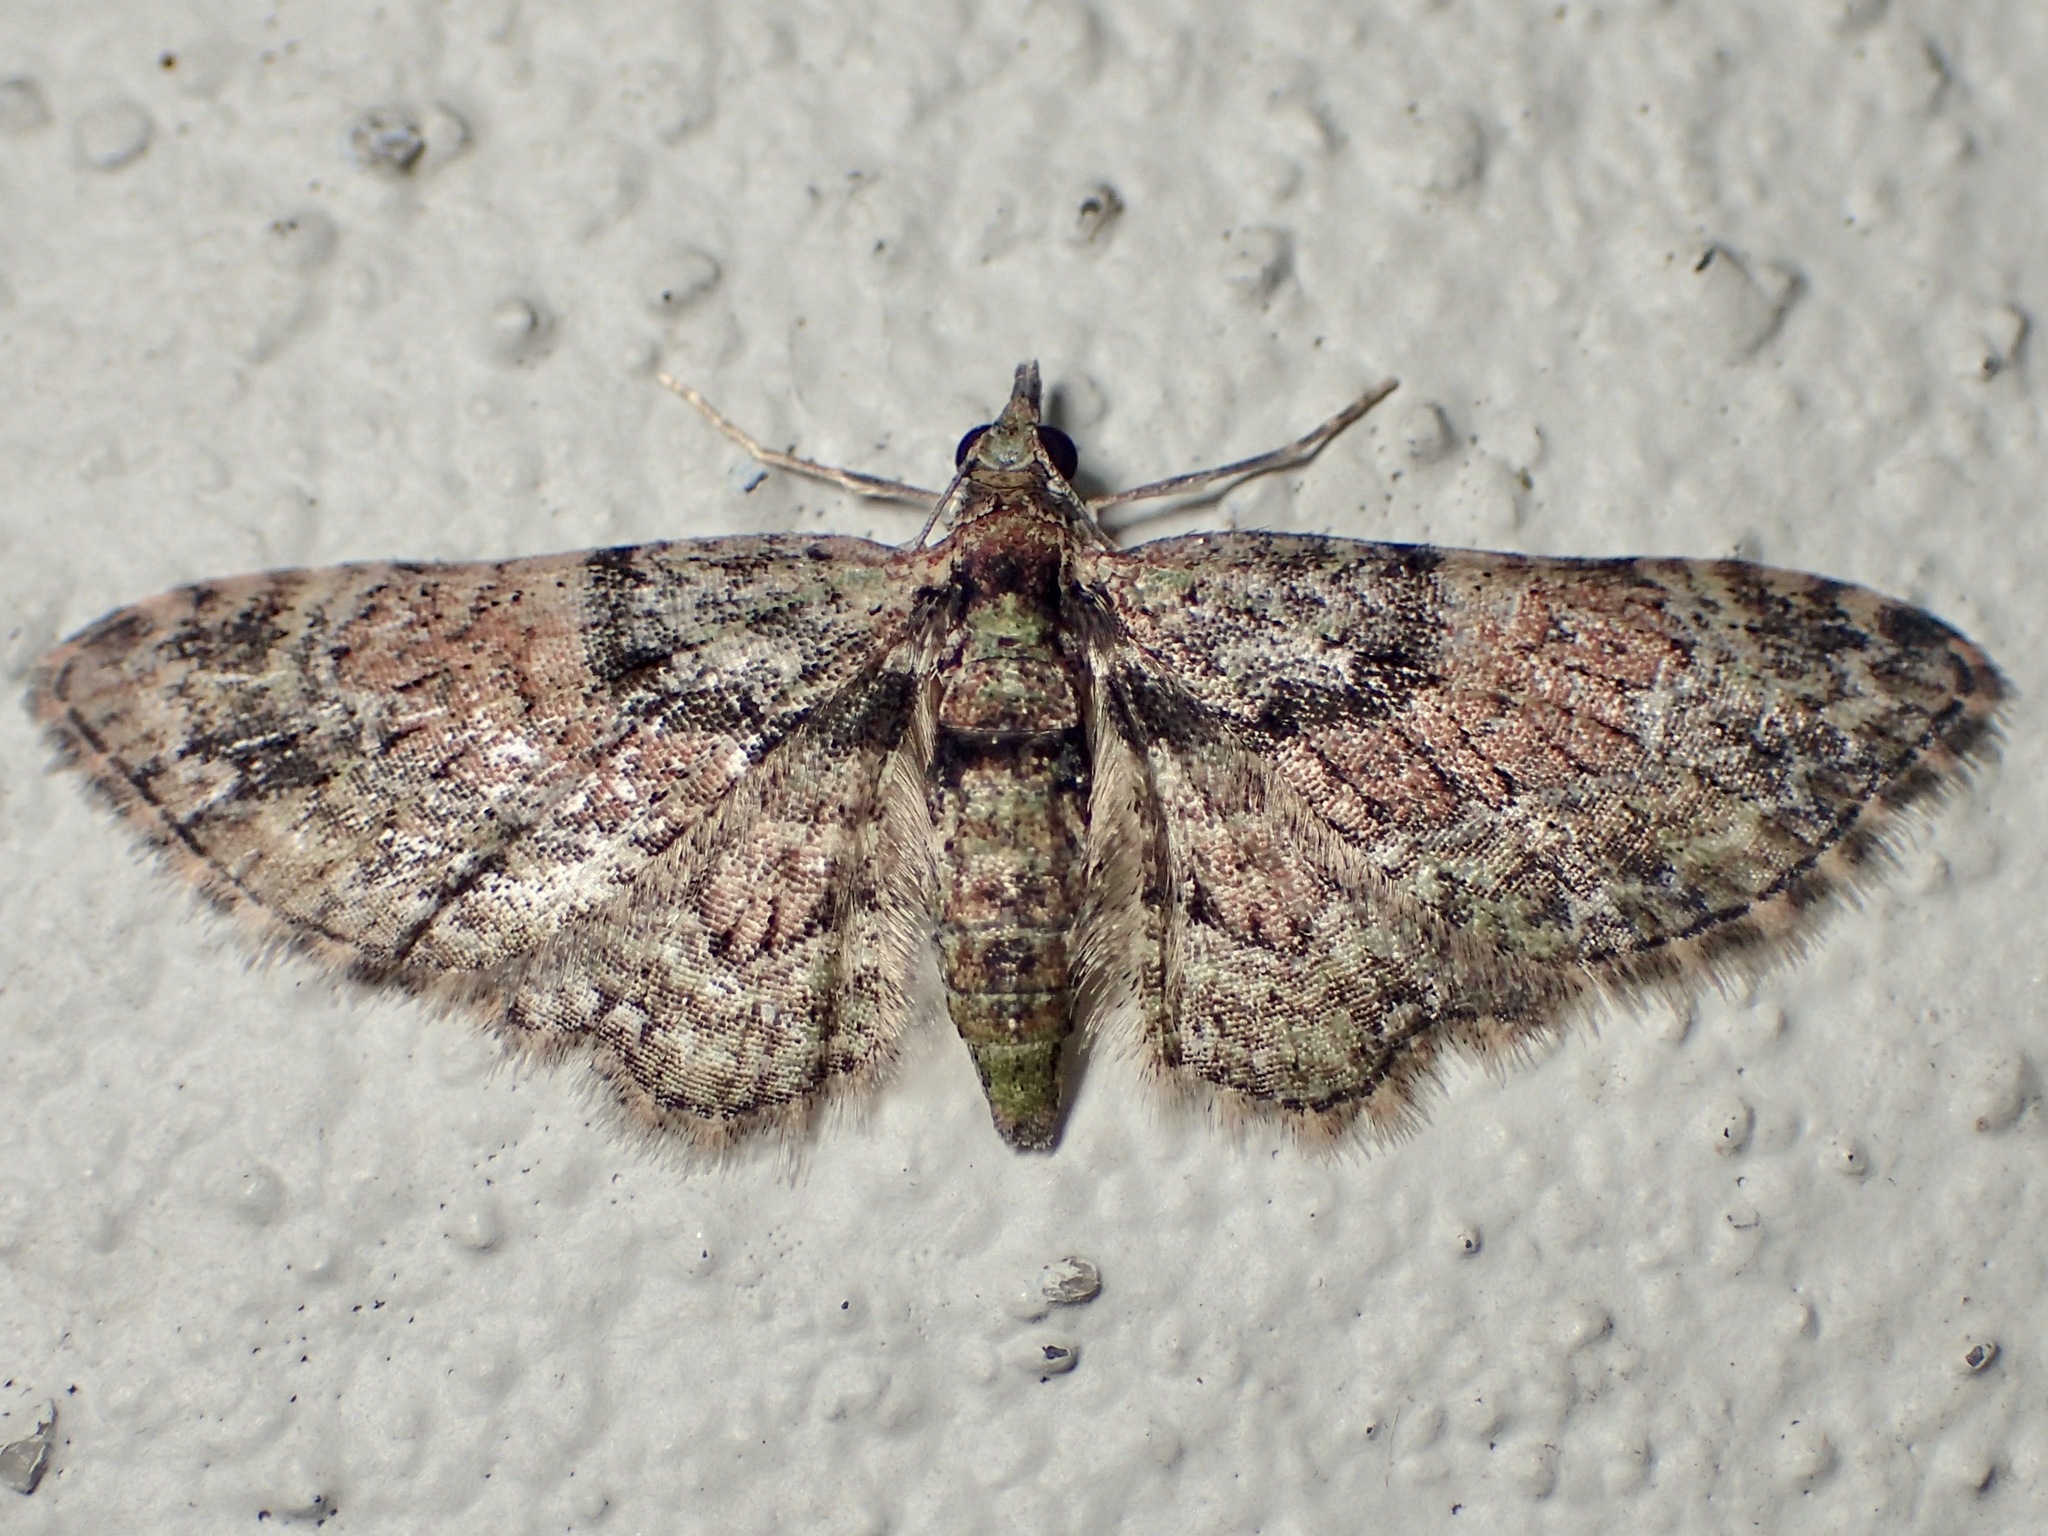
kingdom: Animalia
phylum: Arthropoda
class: Insecta
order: Lepidoptera
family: Geometridae
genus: Chloroclystis
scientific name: Chloroclystis catastreptes
